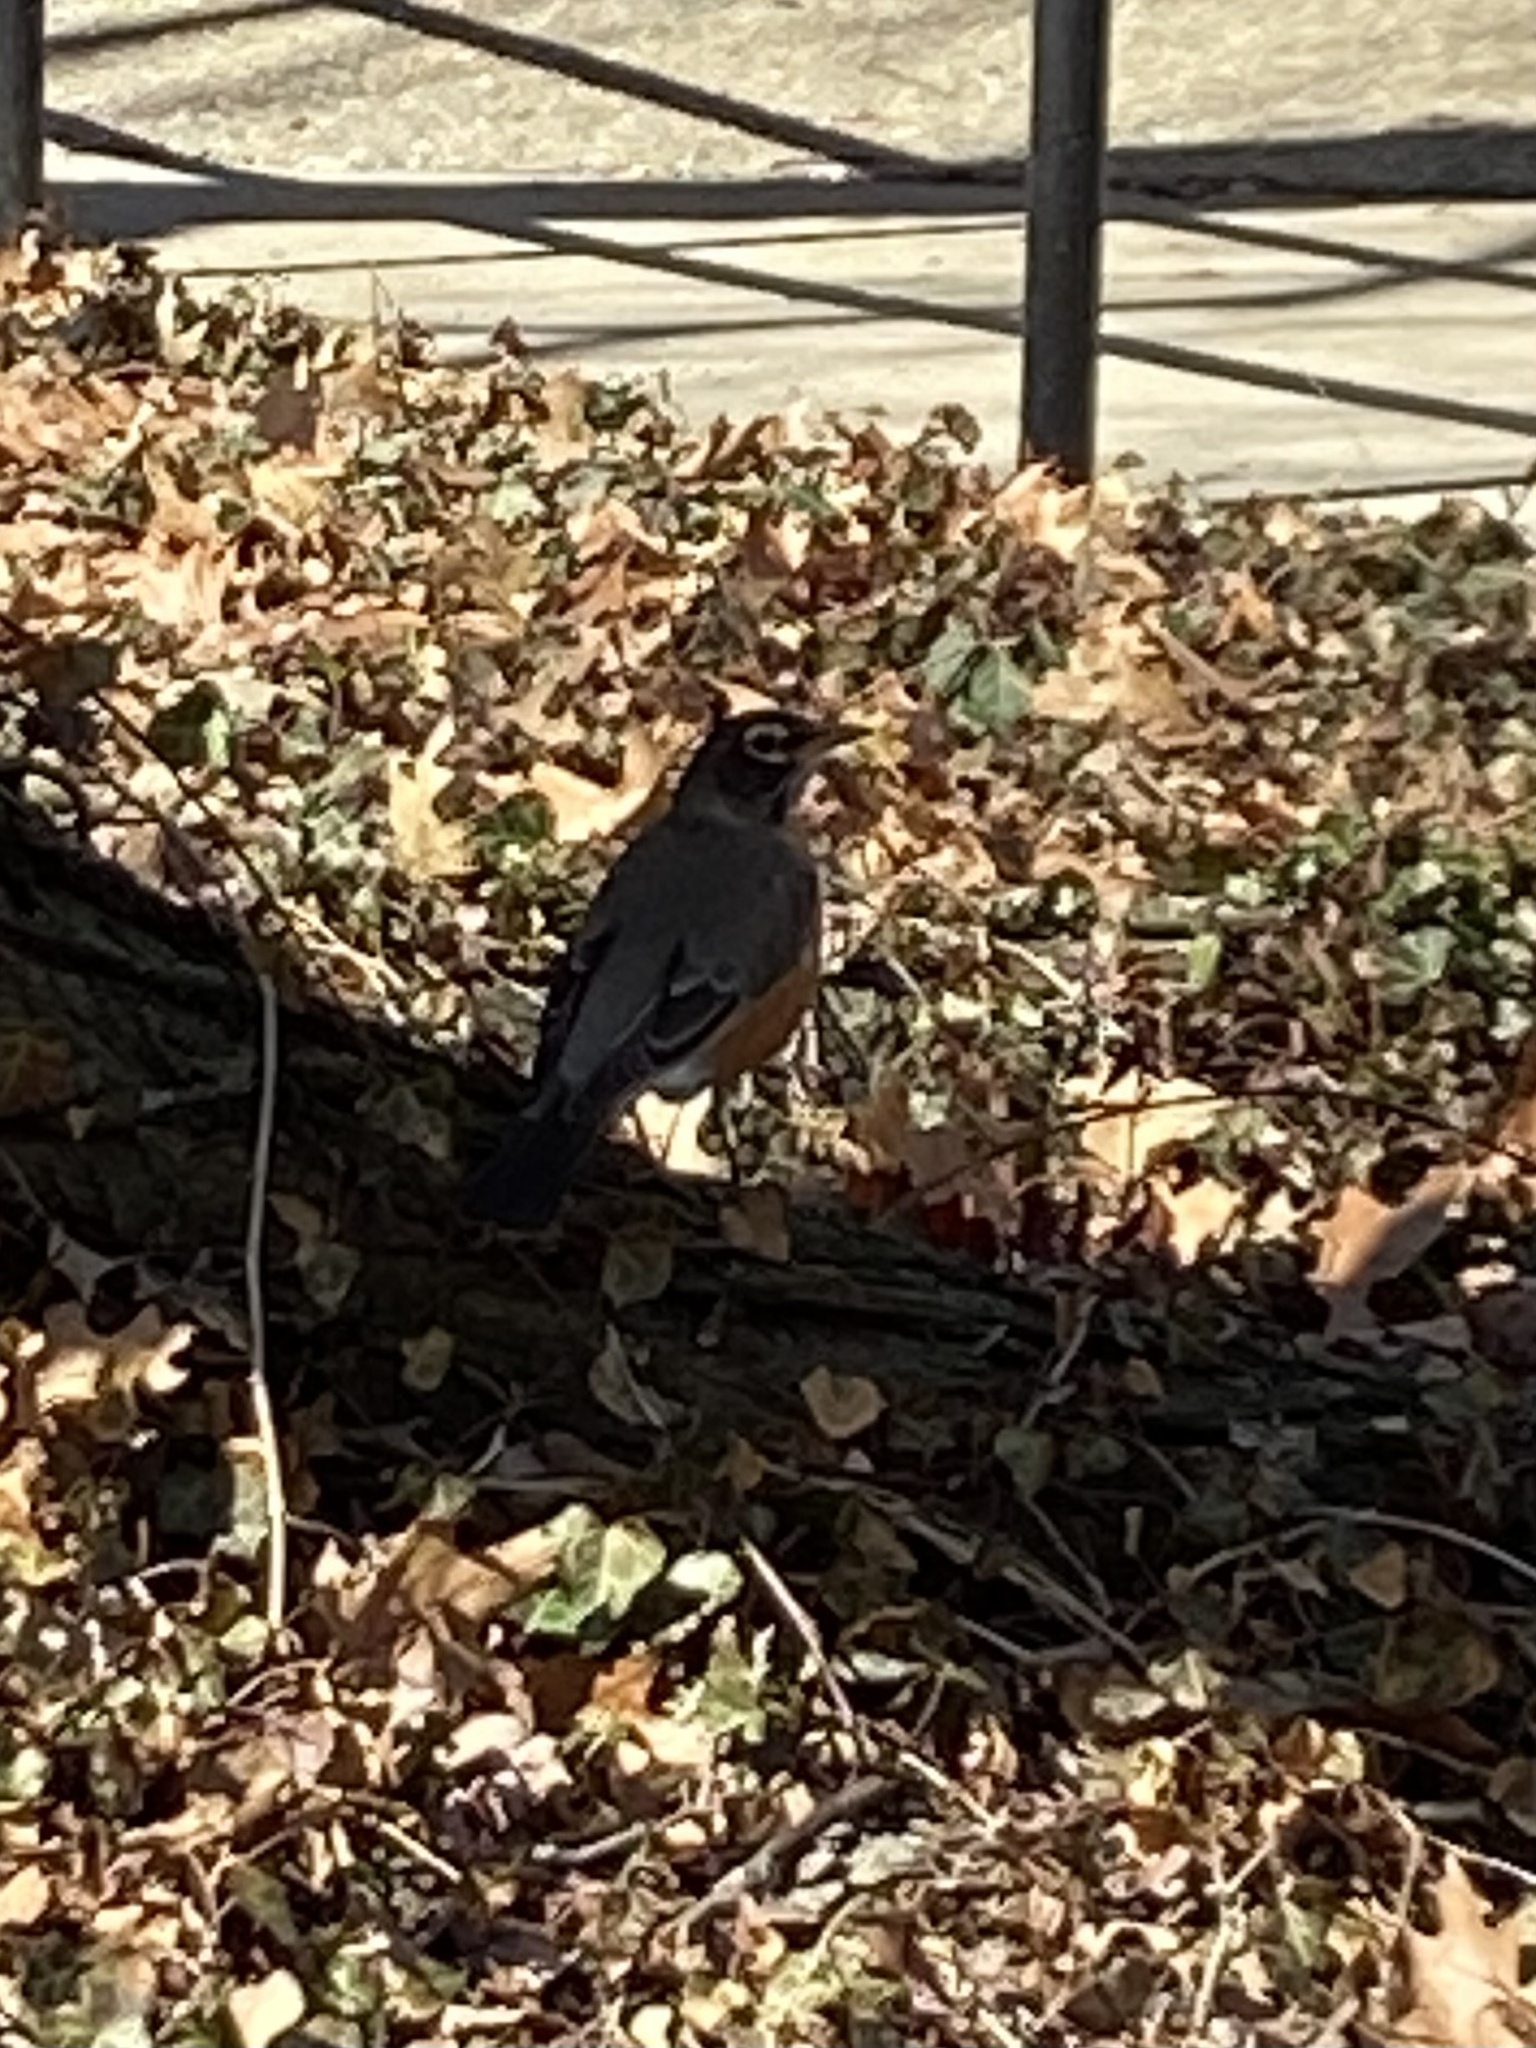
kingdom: Animalia
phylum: Chordata
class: Aves
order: Passeriformes
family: Turdidae
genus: Turdus
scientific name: Turdus migratorius
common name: American robin
